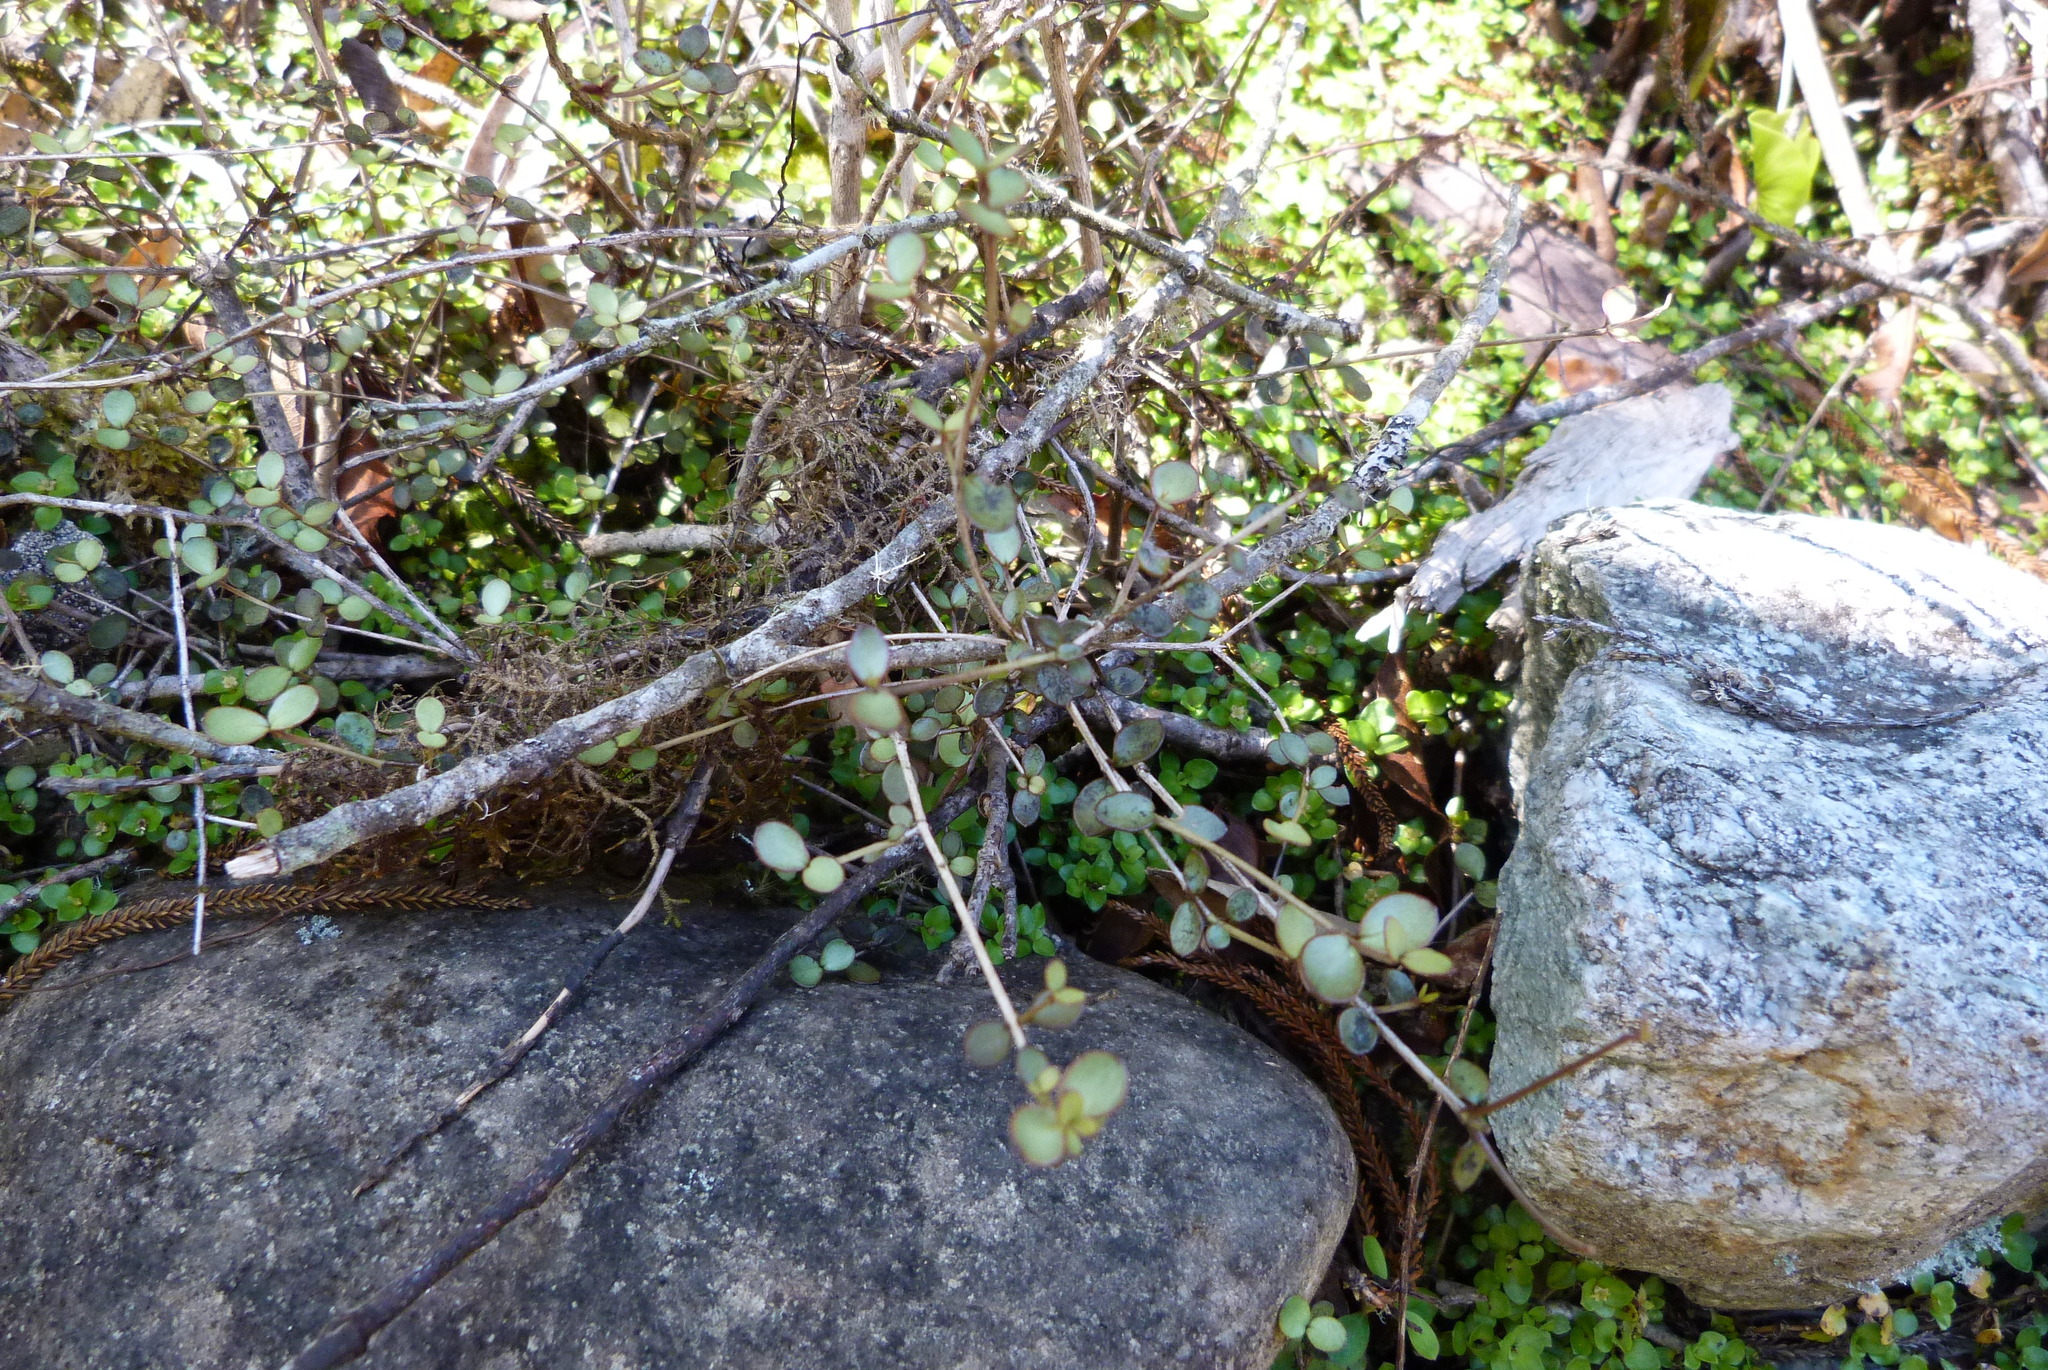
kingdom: Plantae
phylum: Tracheophyta
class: Magnoliopsida
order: Myrtales
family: Myrtaceae
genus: Neomyrtus
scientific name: Neomyrtus pedunculata
